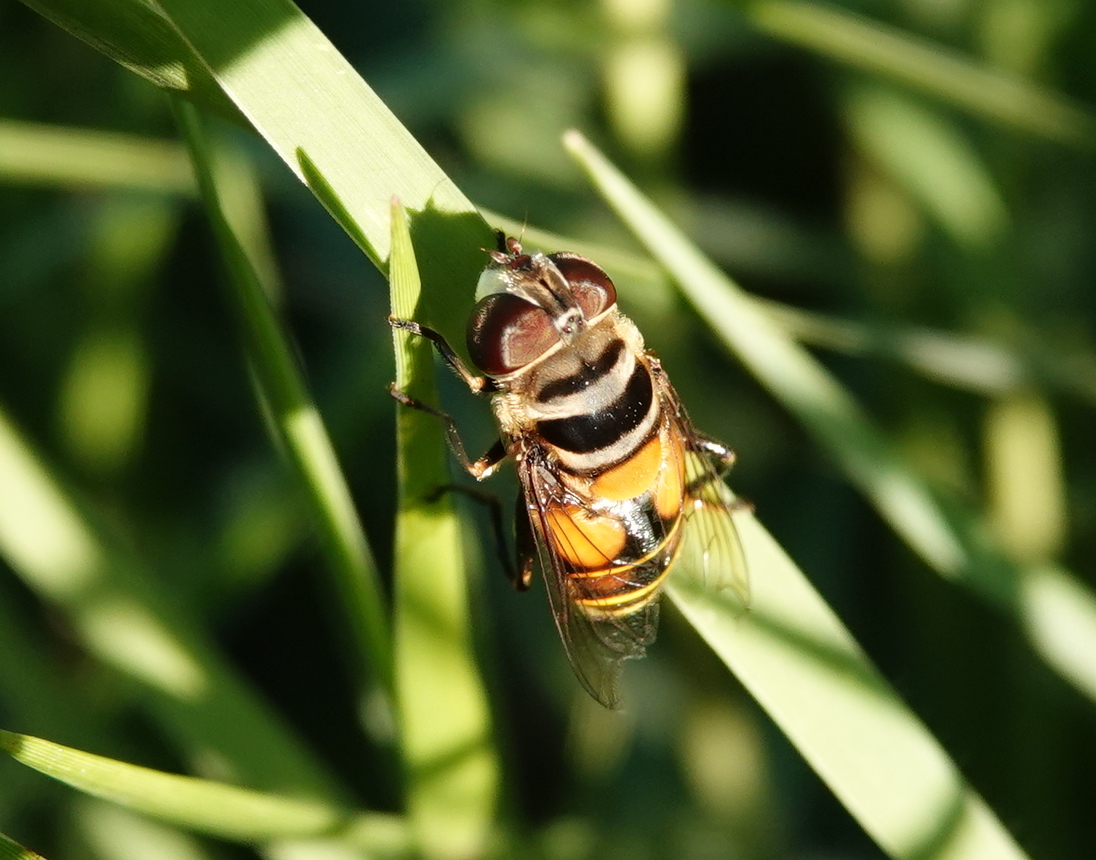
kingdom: Animalia
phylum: Arthropoda
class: Insecta
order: Diptera
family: Syrphidae
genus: Palpada
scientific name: Palpada agrorum
